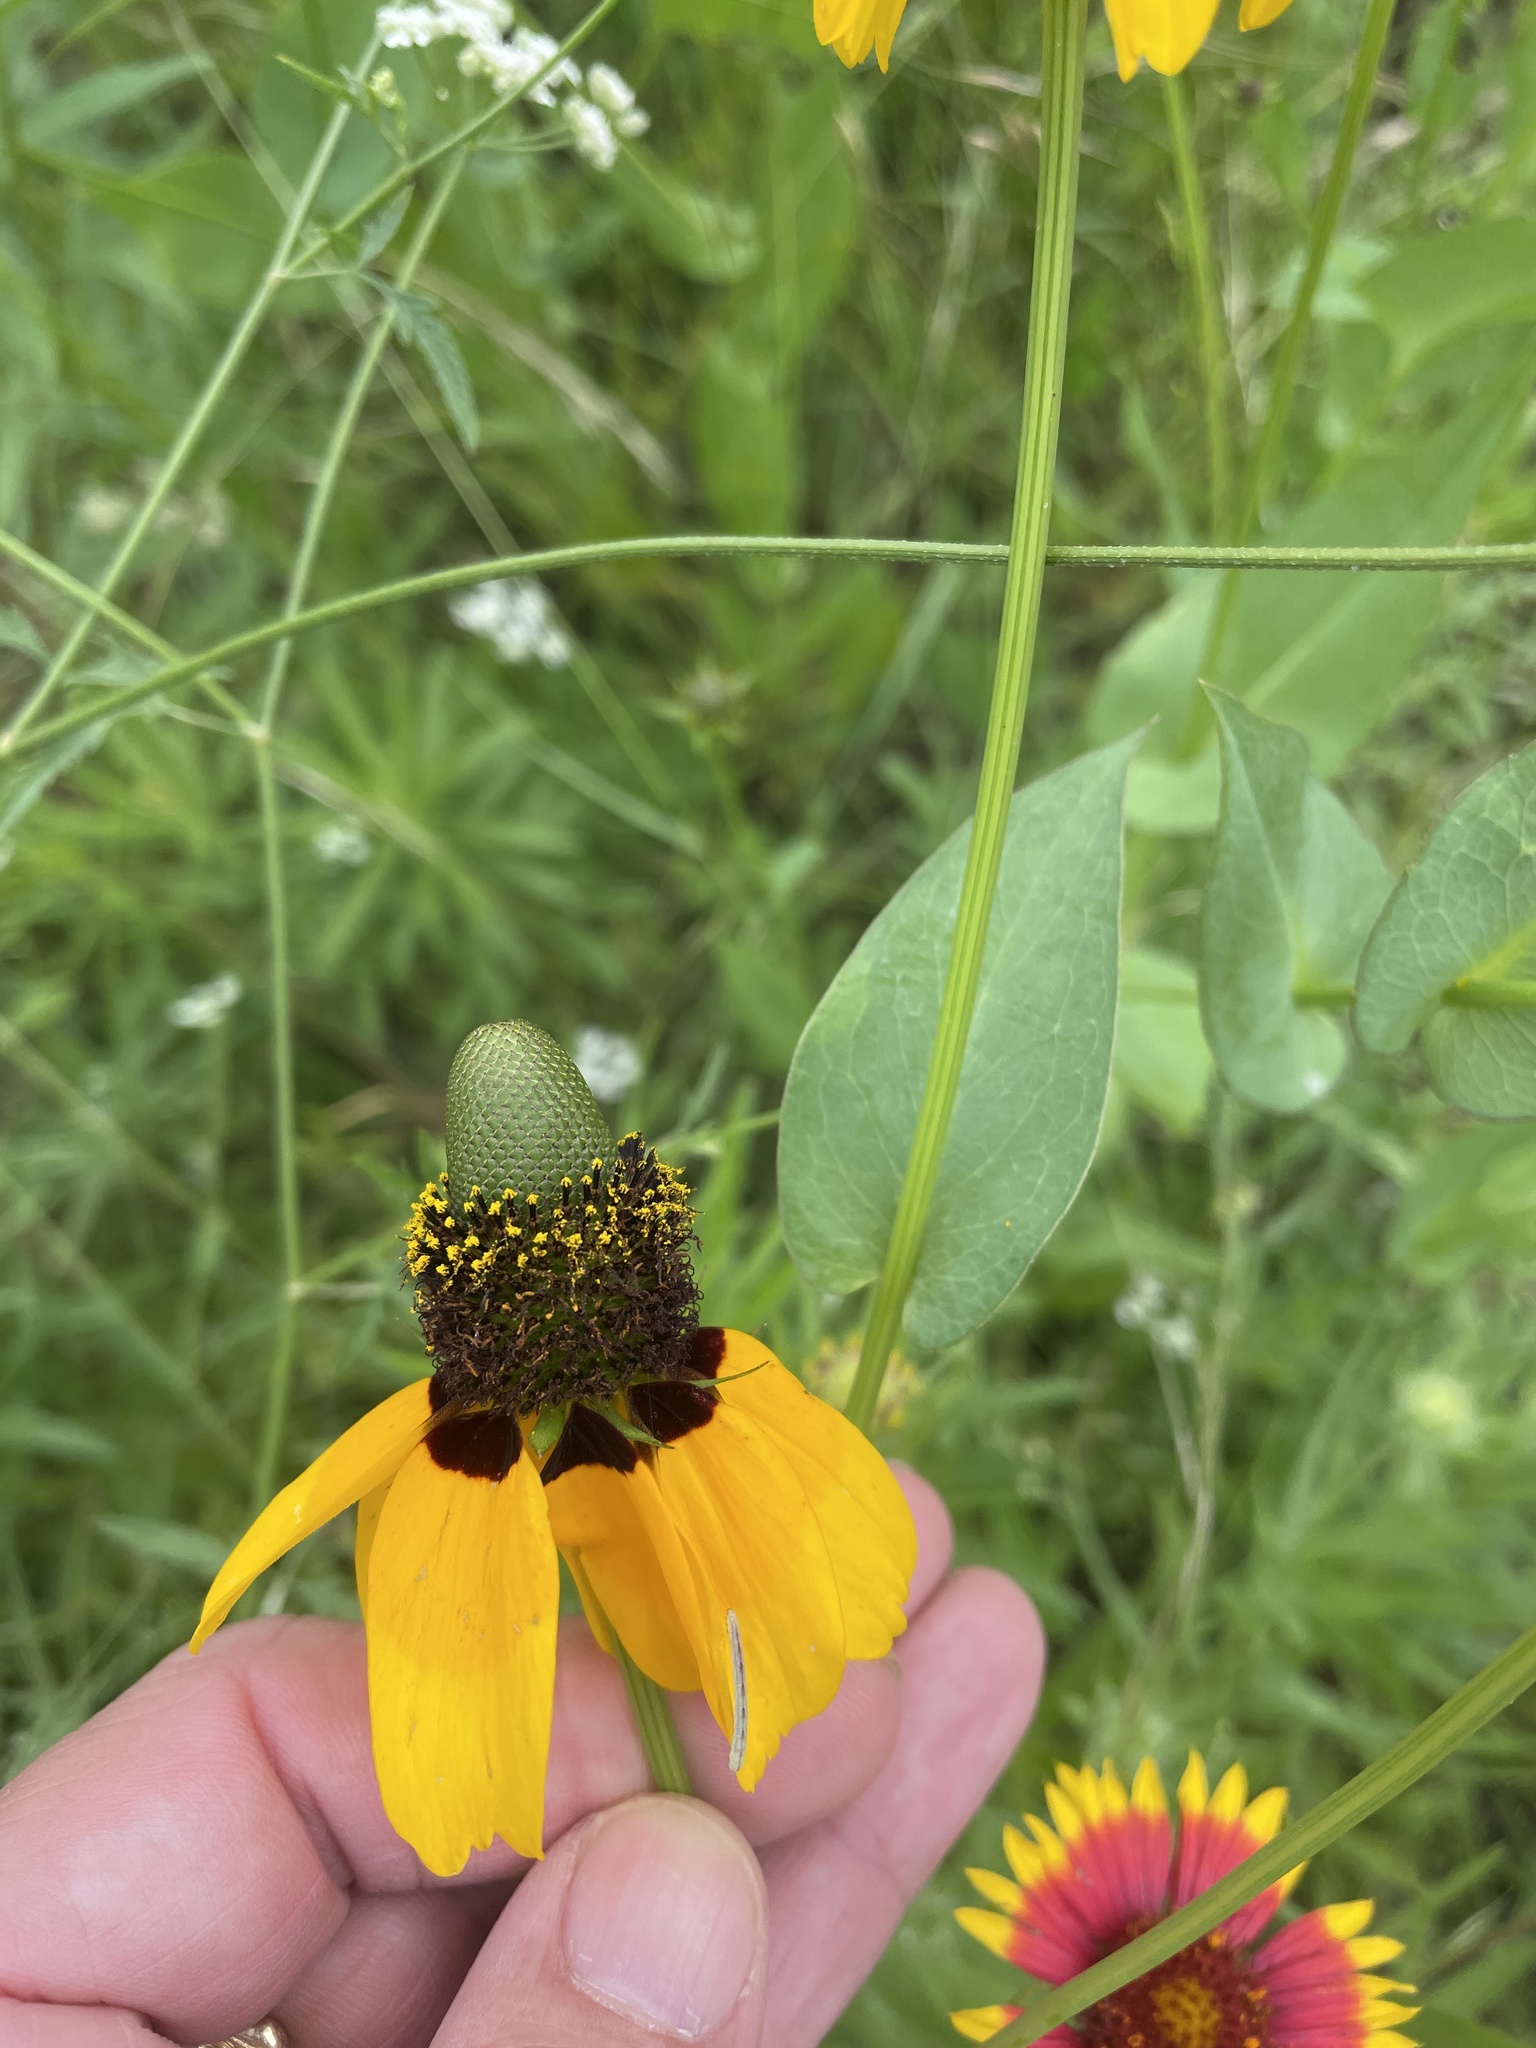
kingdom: Plantae
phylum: Tracheophyta
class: Magnoliopsida
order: Asterales
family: Asteraceae
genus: Rudbeckia
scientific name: Rudbeckia amplexicaulis
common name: Clasping-leaf coneflower
